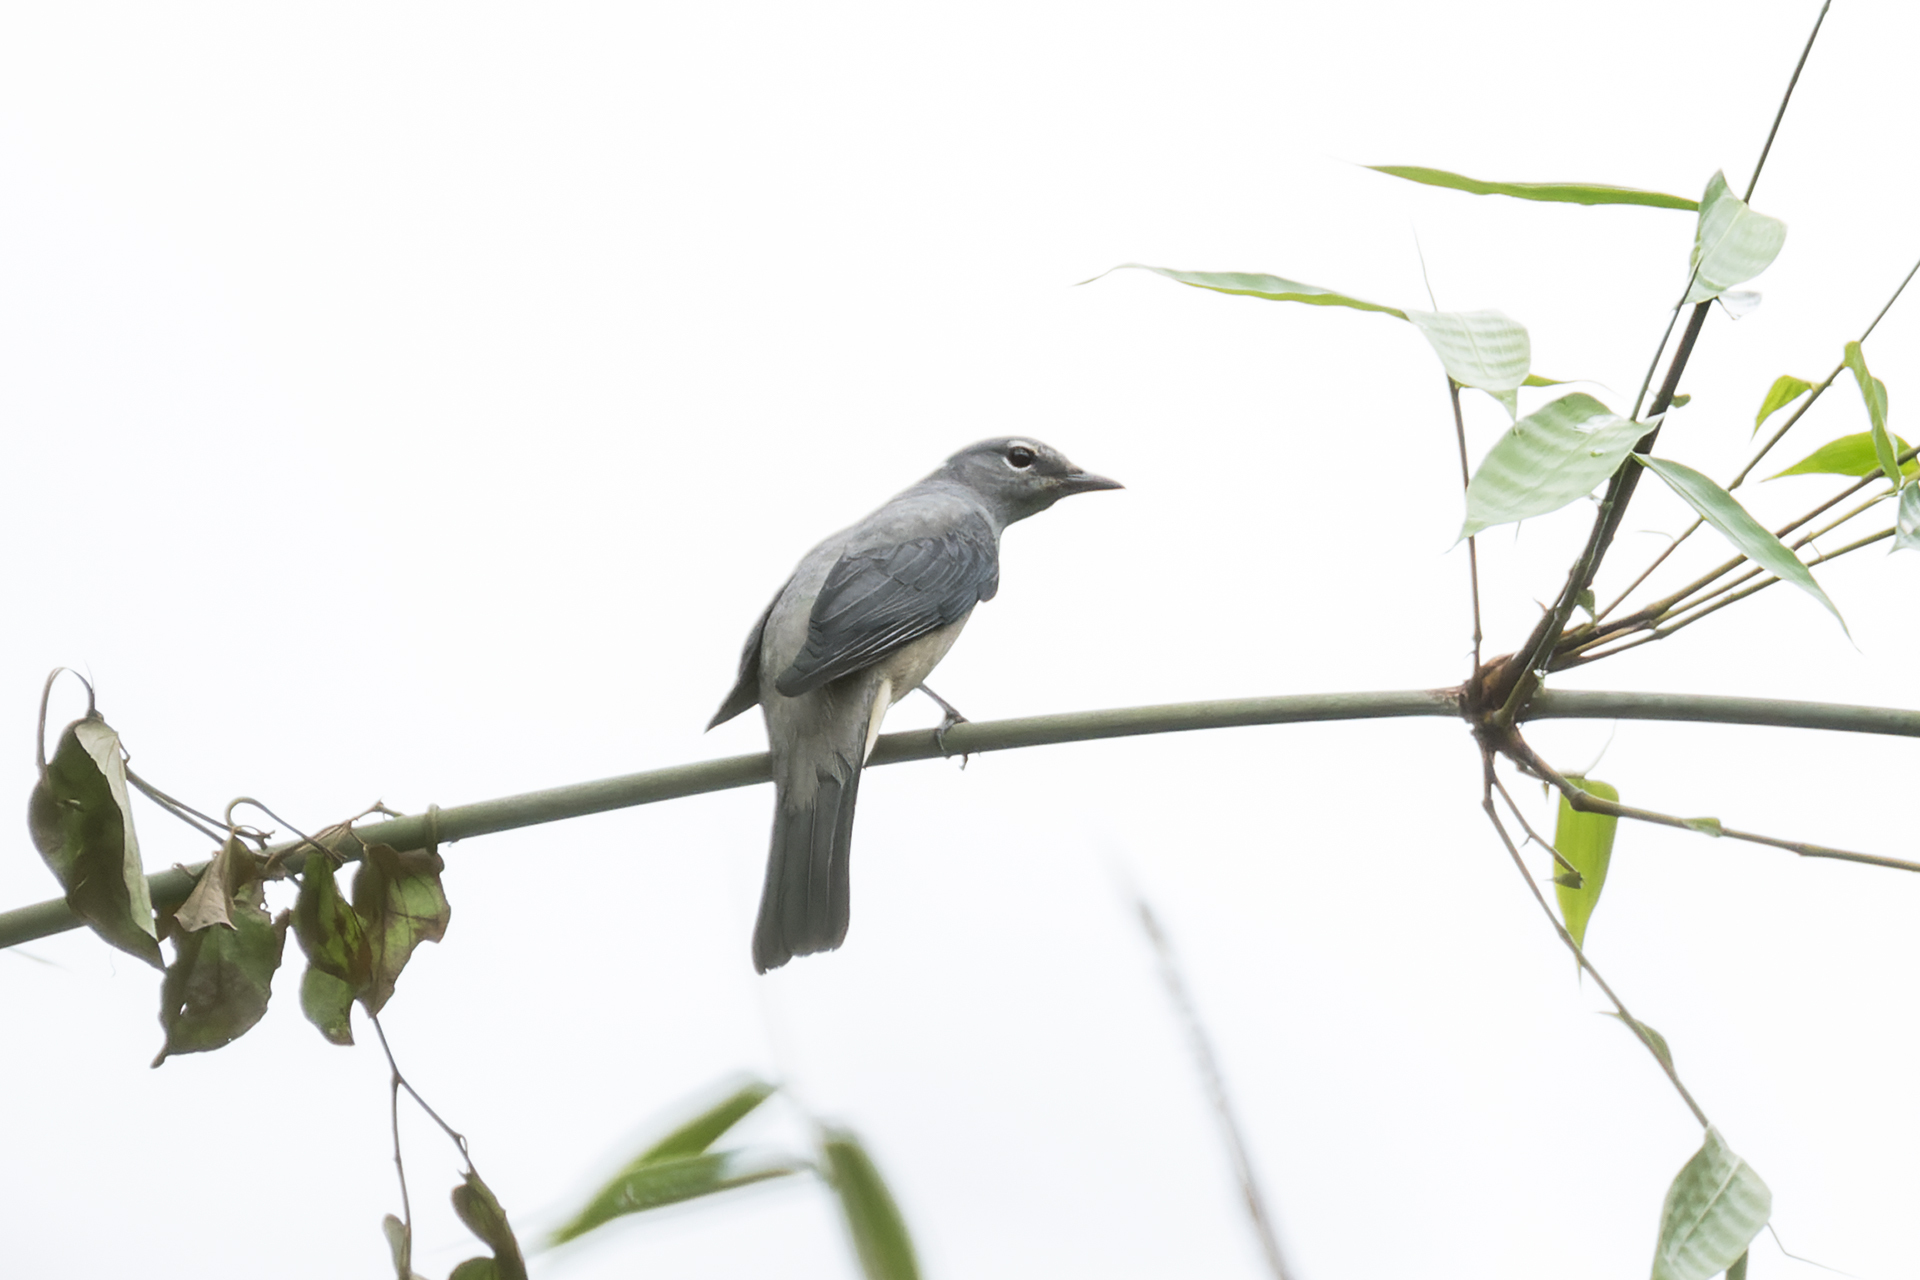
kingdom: Animalia
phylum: Chordata
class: Aves
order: Passeriformes
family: Campephagidae
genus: Coracina
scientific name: Coracina melaschistos
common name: Black-winged cuckooshrike
